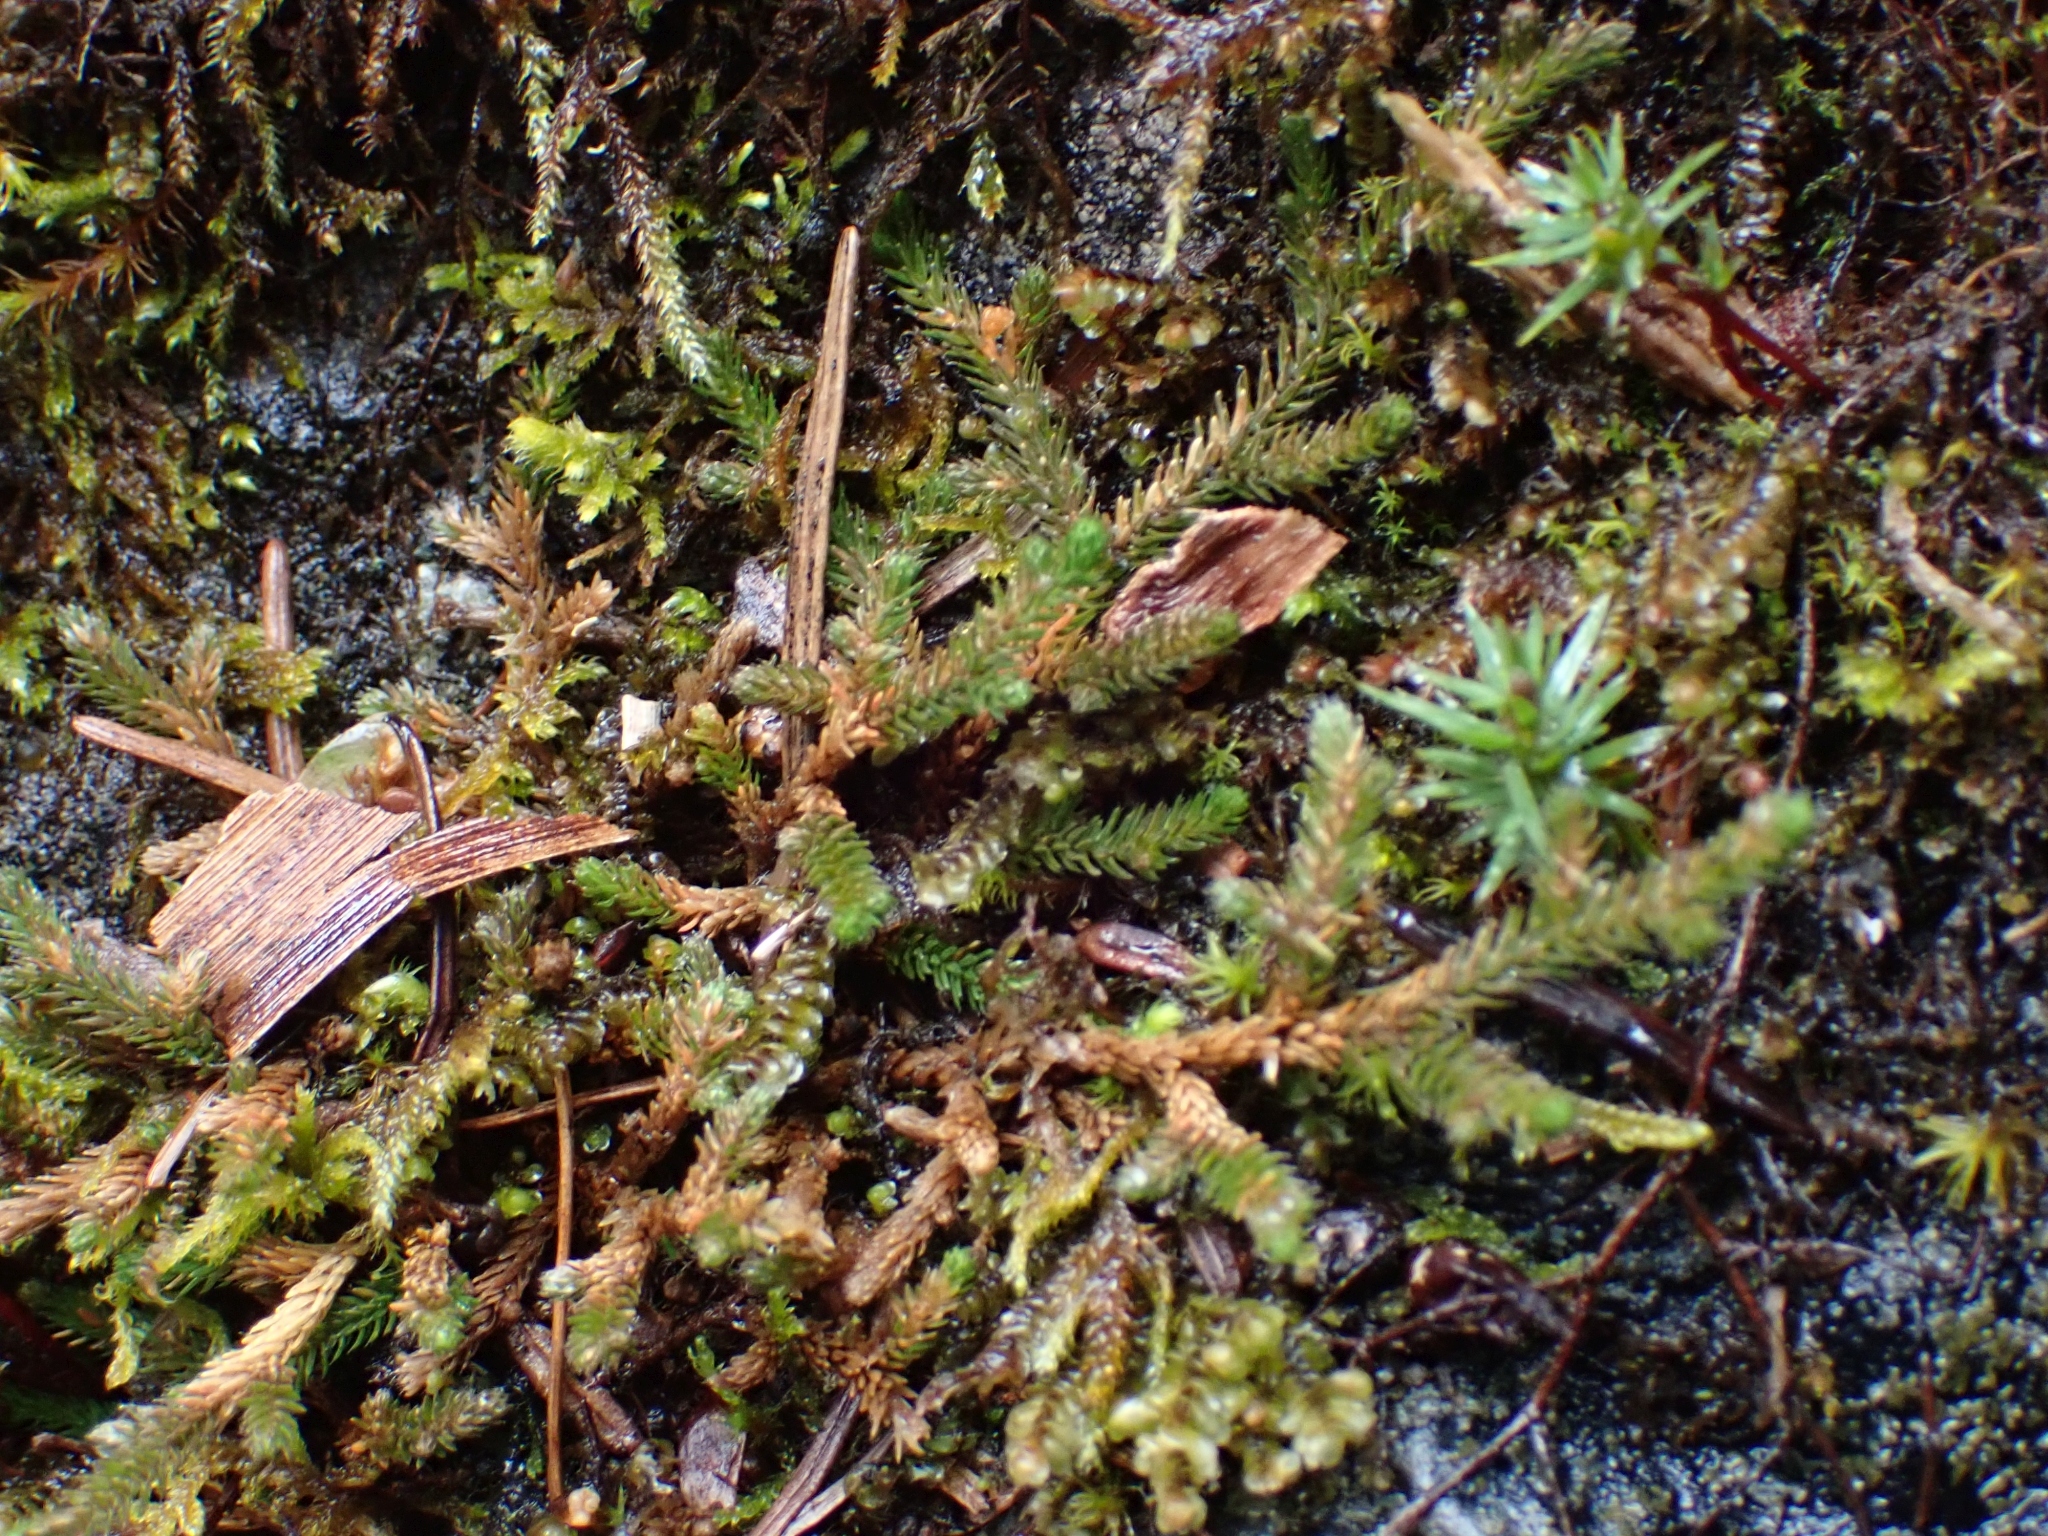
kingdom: Plantae
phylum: Tracheophyta
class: Lycopodiopsida
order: Selaginellales
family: Selaginellaceae
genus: Selaginella
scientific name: Selaginella wallacei
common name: Wallace's selaginella
